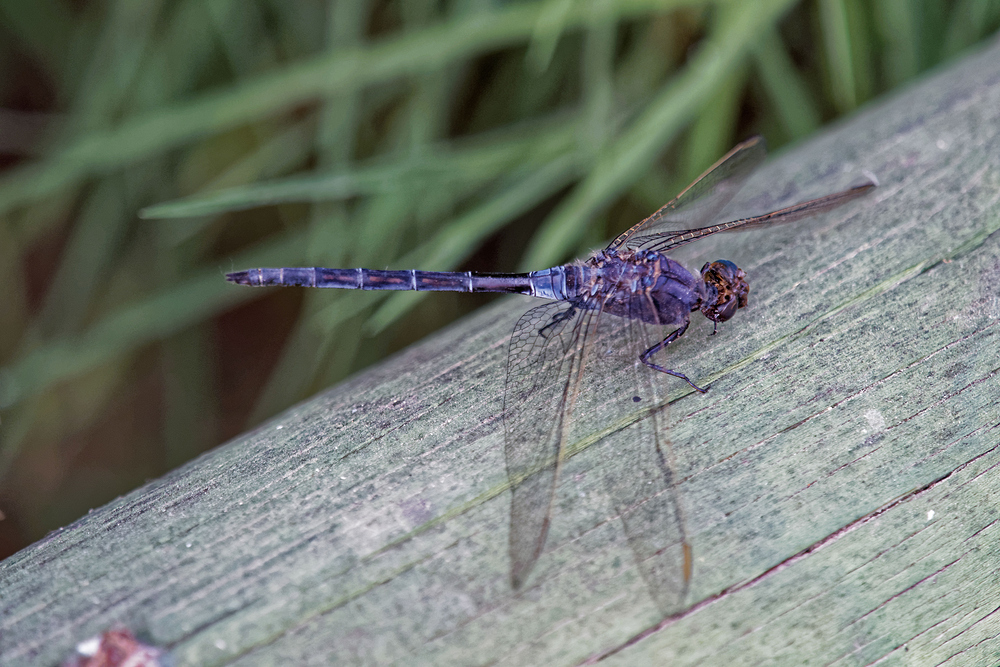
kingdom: Animalia
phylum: Arthropoda
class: Insecta
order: Odonata
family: Libellulidae
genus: Orthetrum
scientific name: Orthetrum trinacria
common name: Long skimmer
